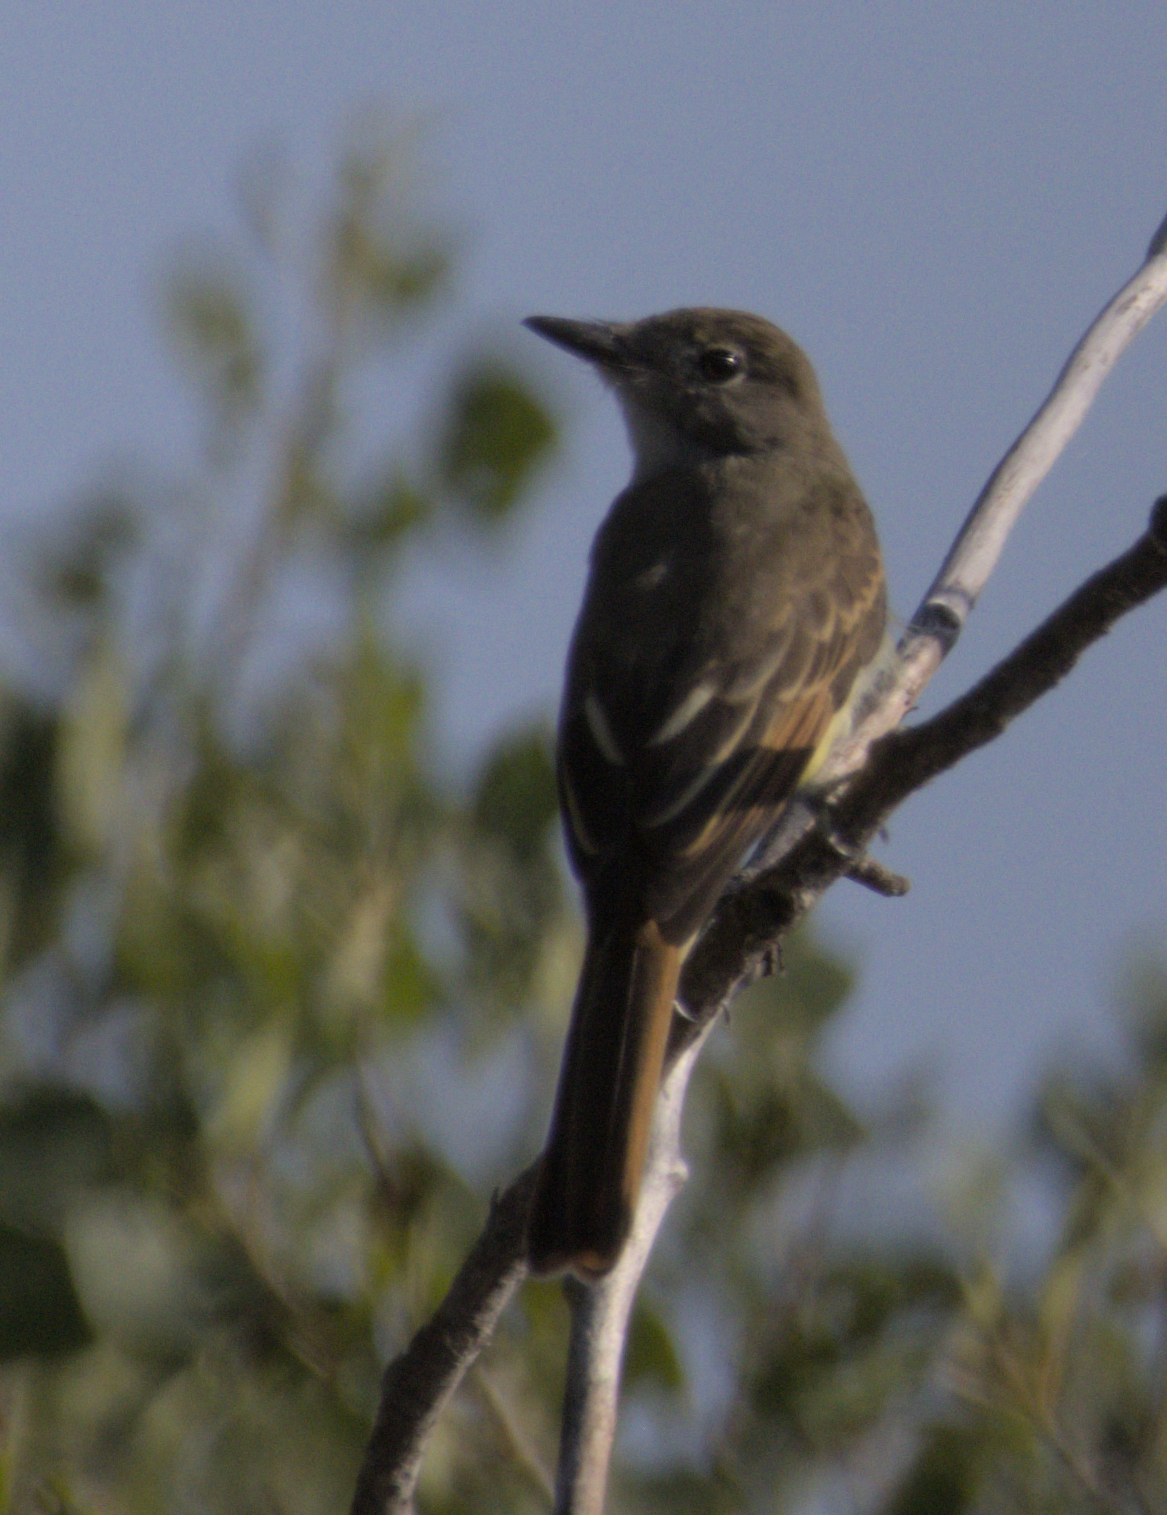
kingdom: Animalia
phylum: Chordata
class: Aves
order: Passeriformes
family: Tyrannidae
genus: Myiarchus
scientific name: Myiarchus crinitus
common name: Great crested flycatcher
